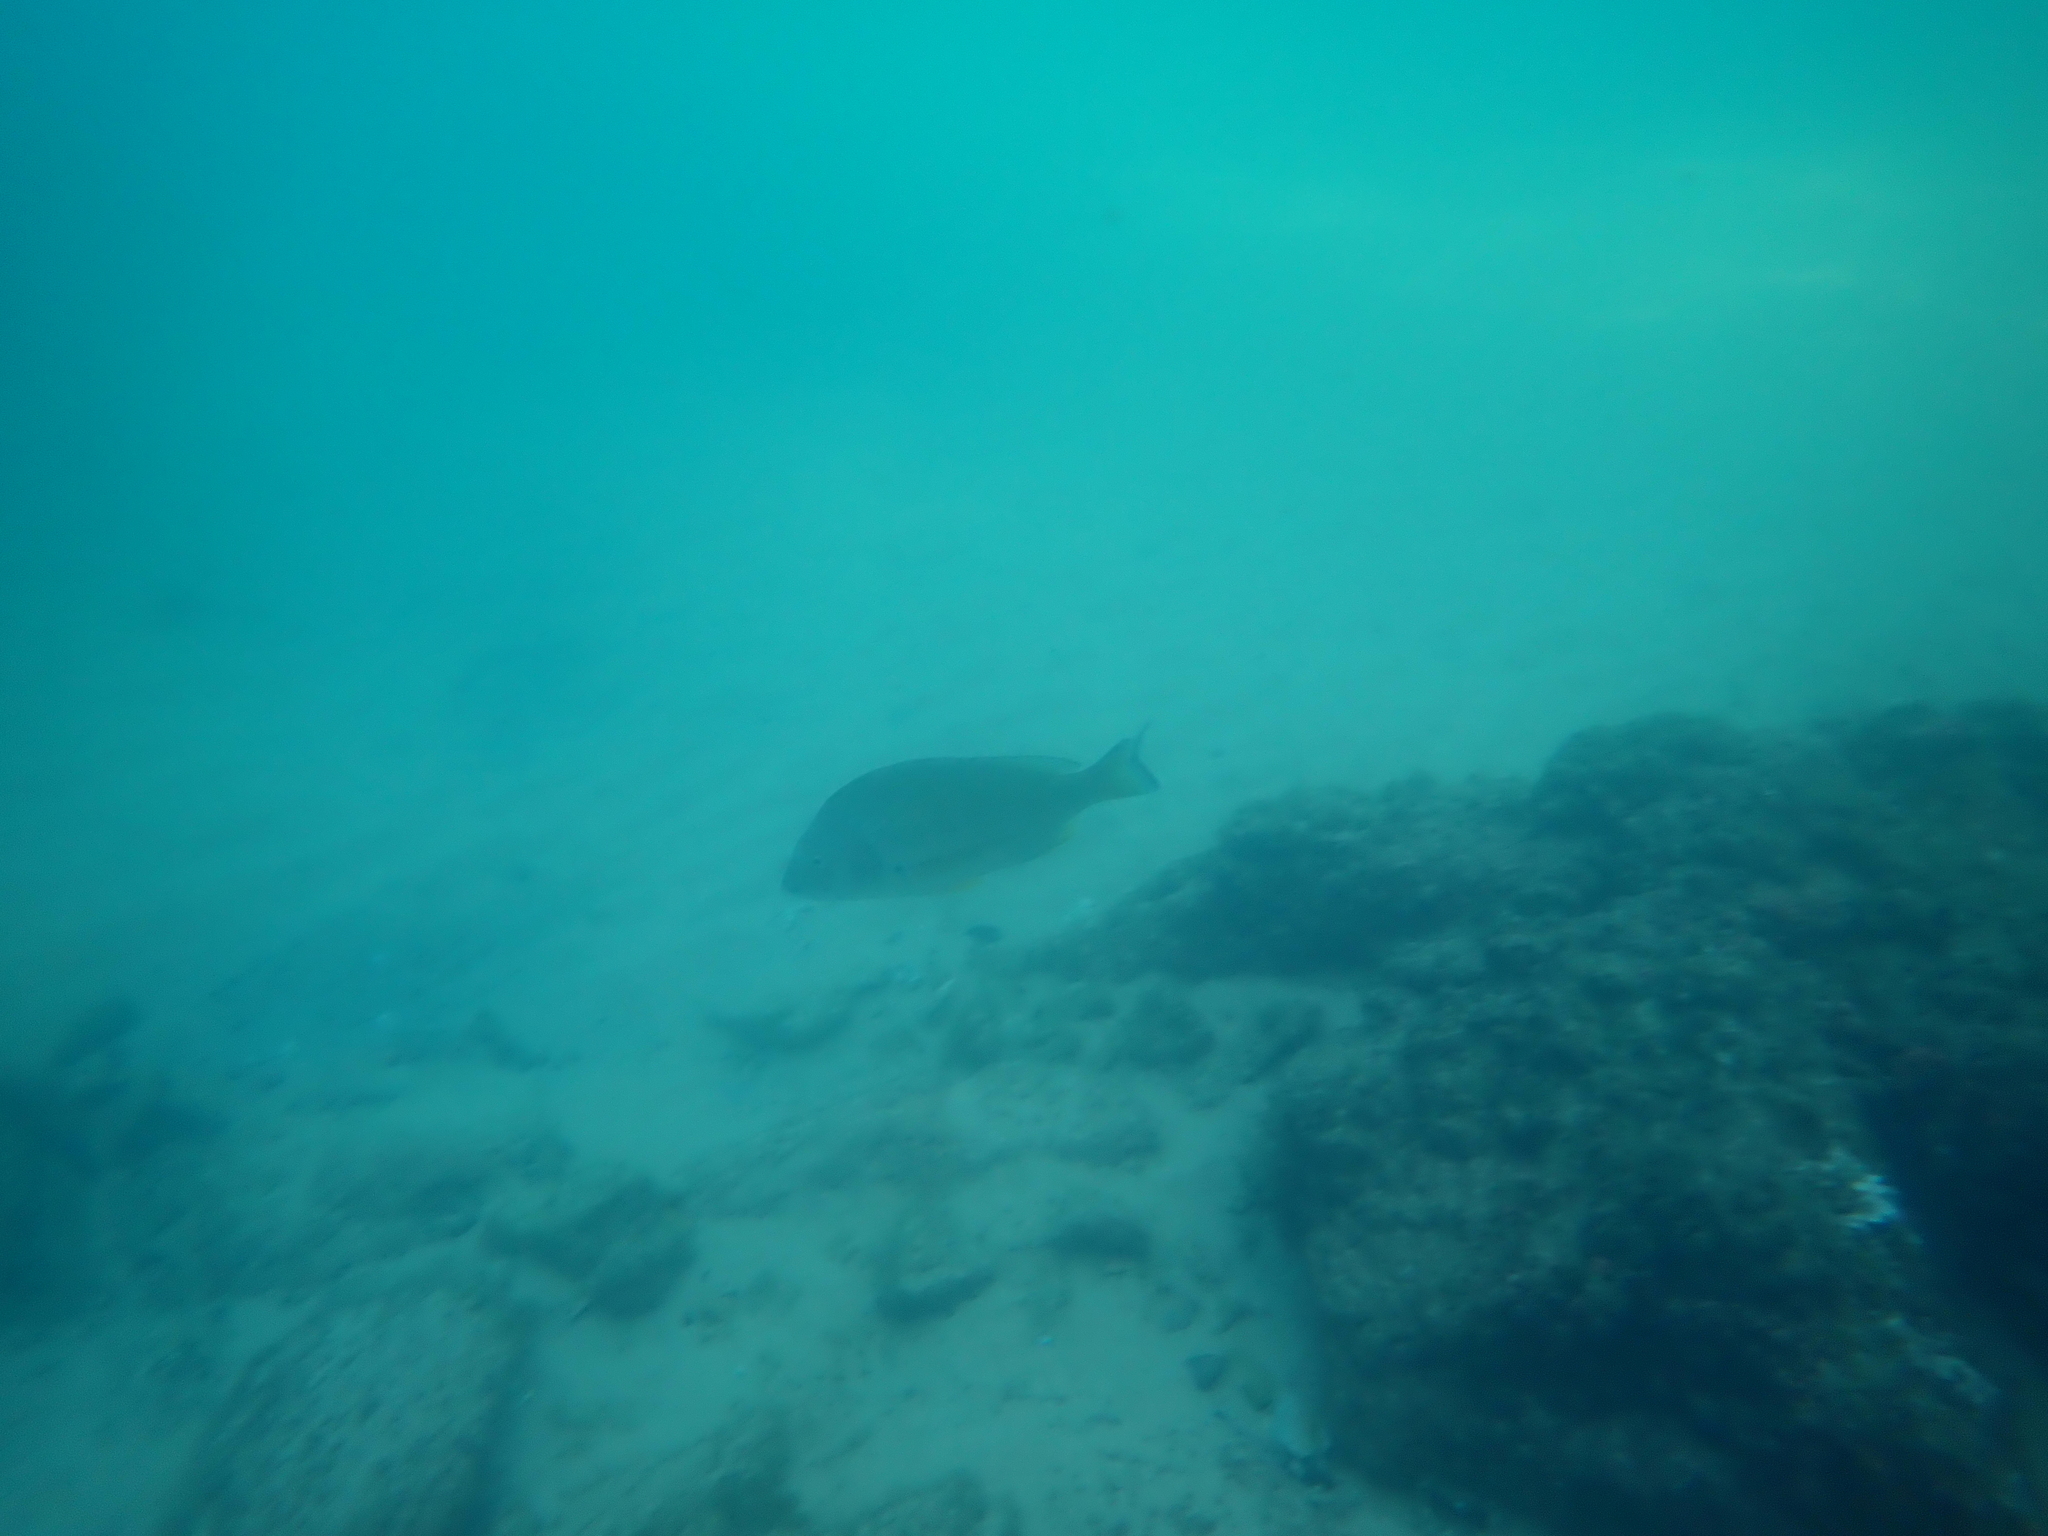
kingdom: Animalia
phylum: Chordata
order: Perciformes
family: Sparidae
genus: Acanthopagrus
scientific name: Acanthopagrus australis
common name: Surf bream
